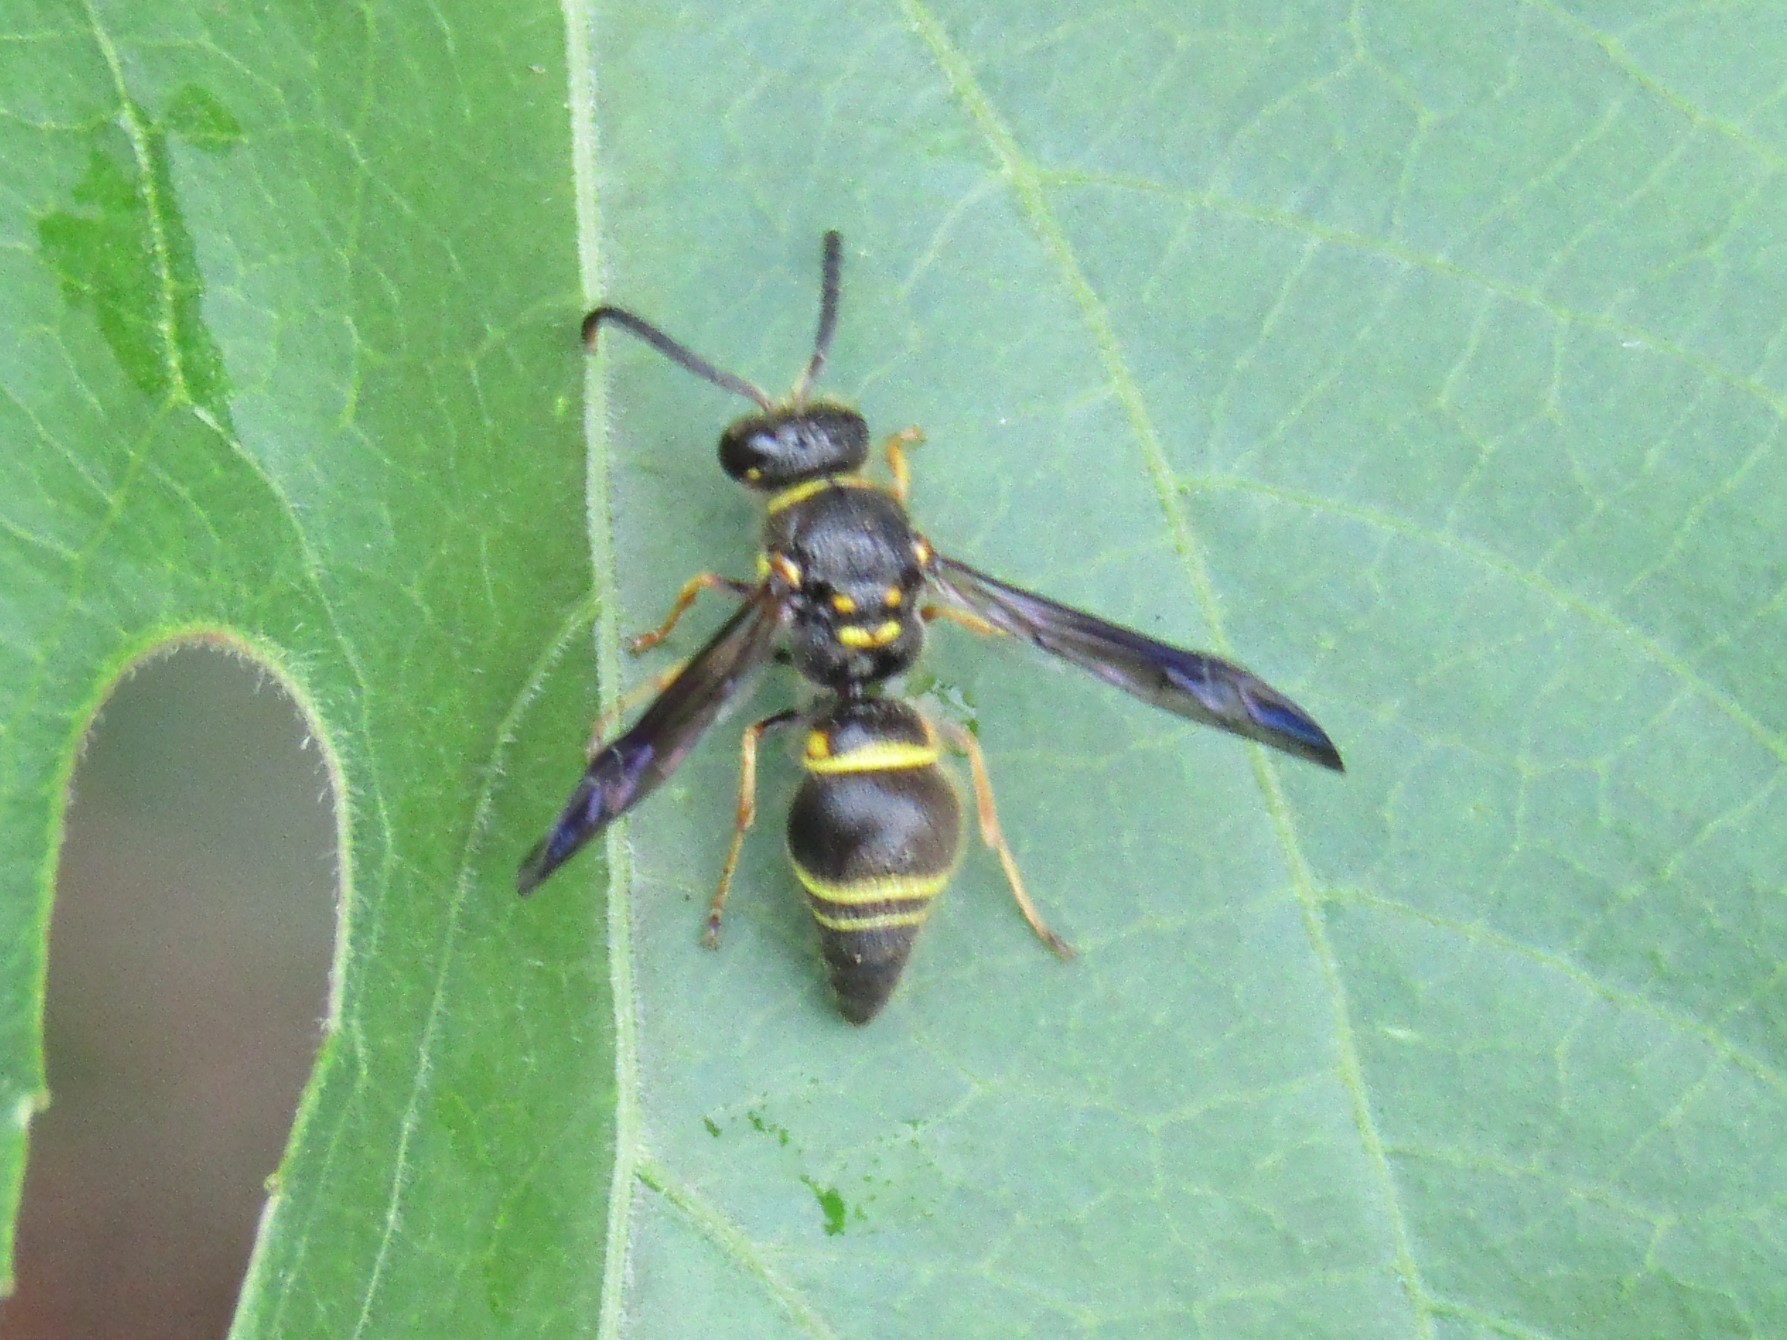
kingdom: Animalia
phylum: Arthropoda
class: Insecta
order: Hymenoptera
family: Vespidae
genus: Ancistrocerus
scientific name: Ancistrocerus campestris
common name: Smiling mason wasp
